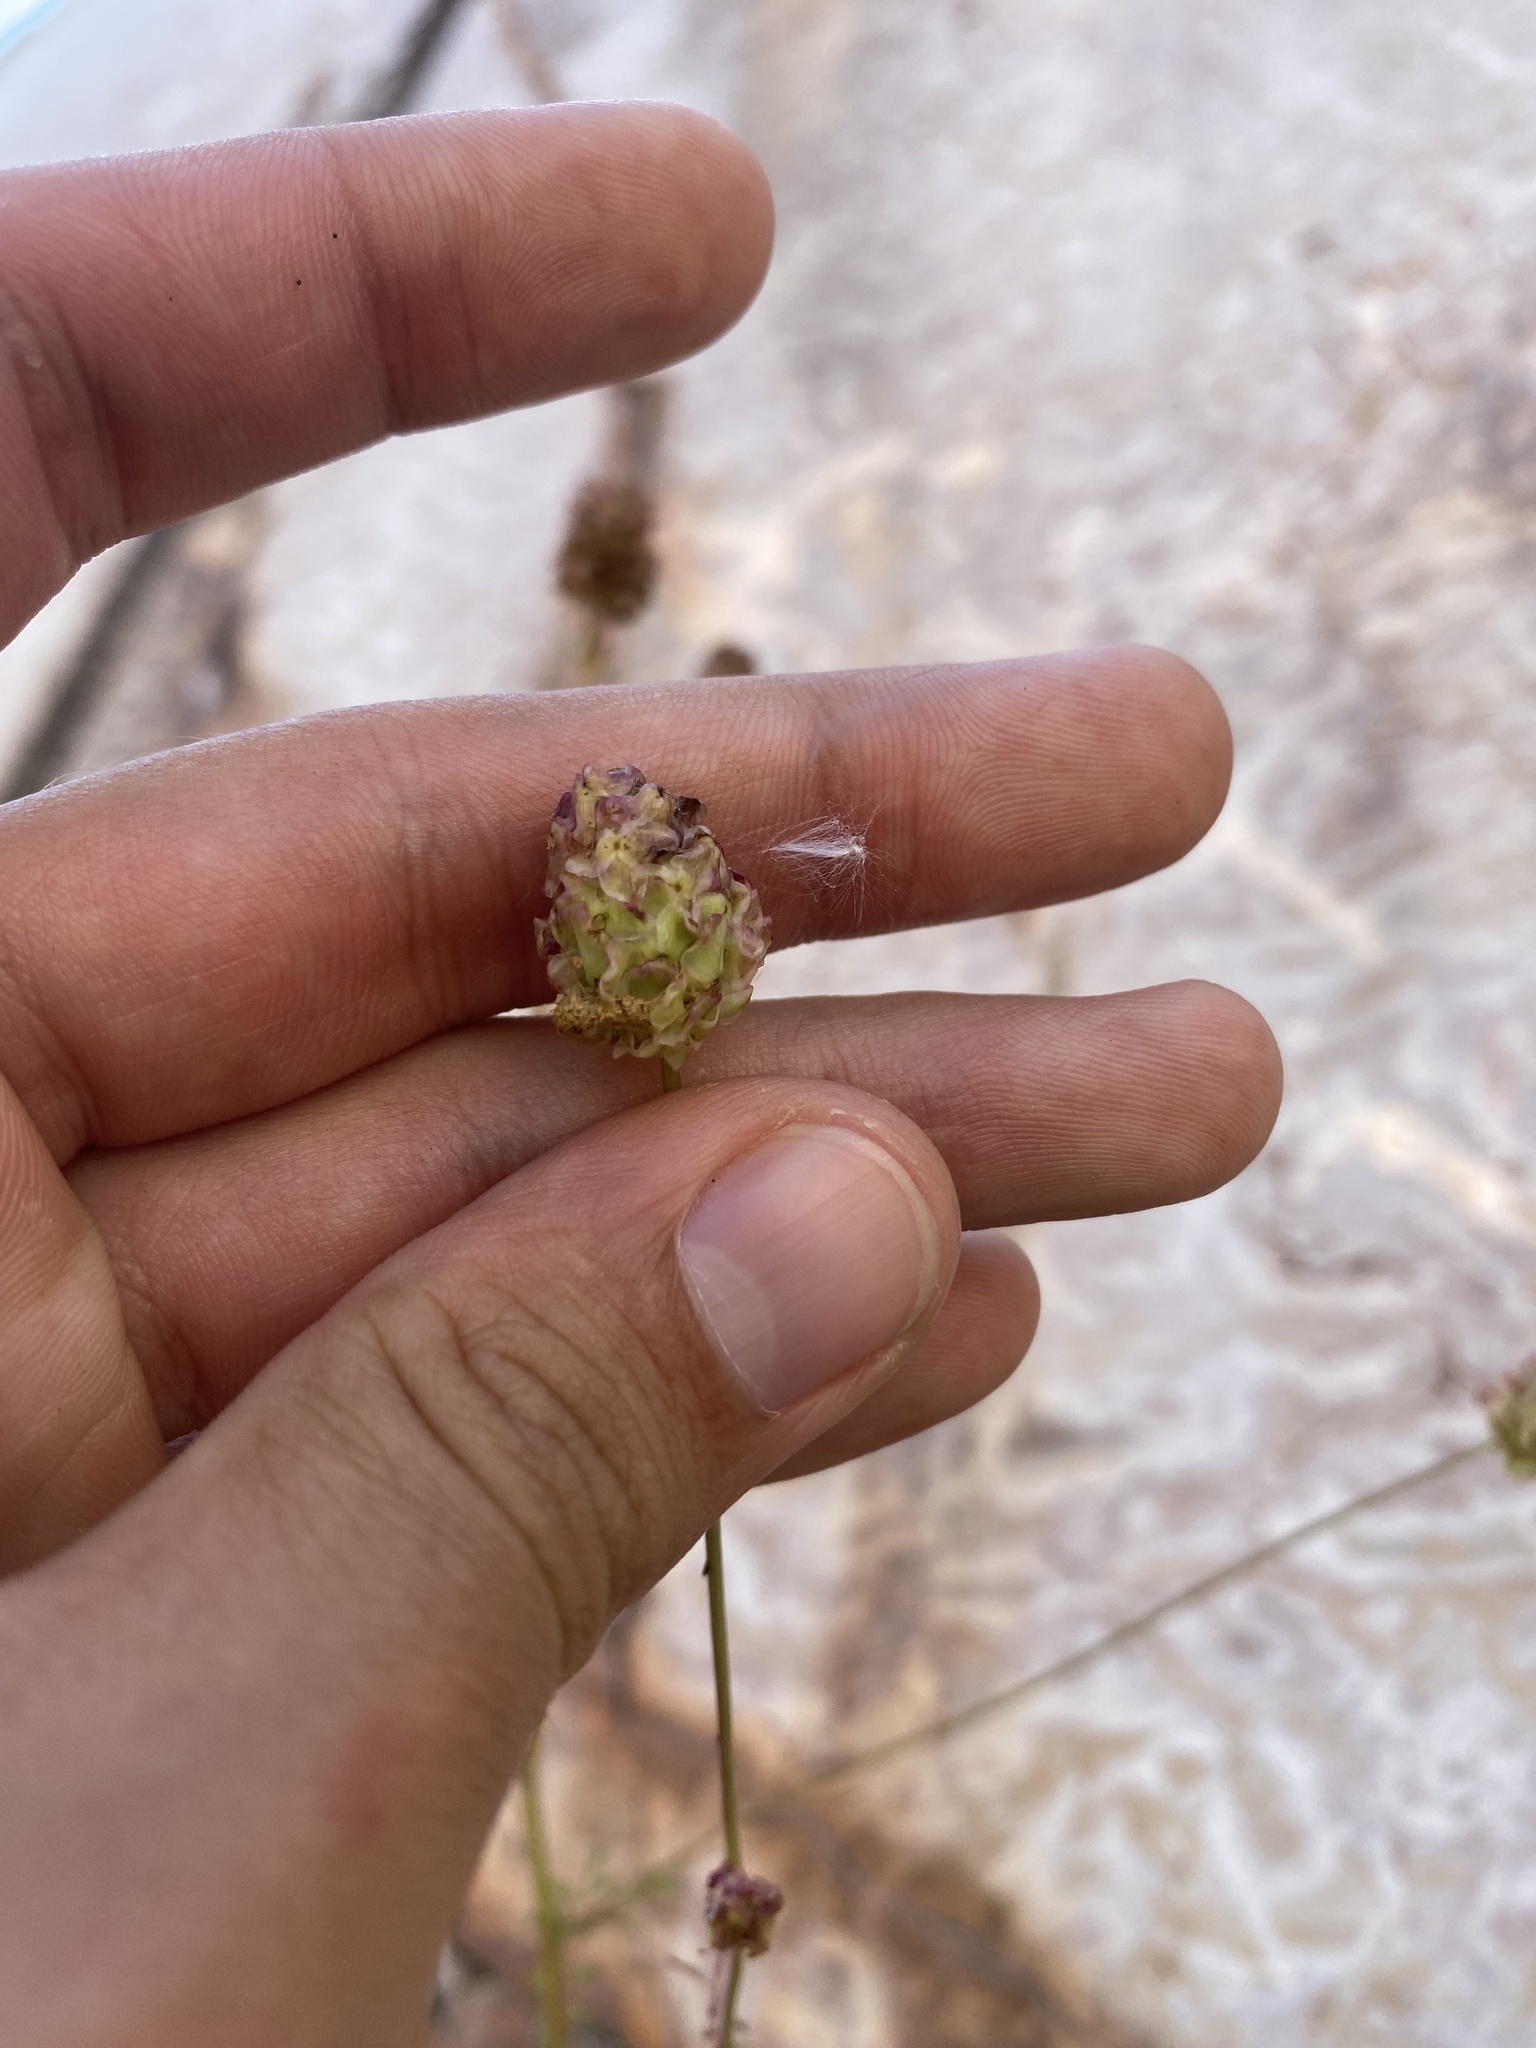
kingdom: Plantae
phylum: Tracheophyta
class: Magnoliopsida
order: Rosales
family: Rosaceae
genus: Poterium
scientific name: Poterium sanguisorba
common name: Salad burnet
